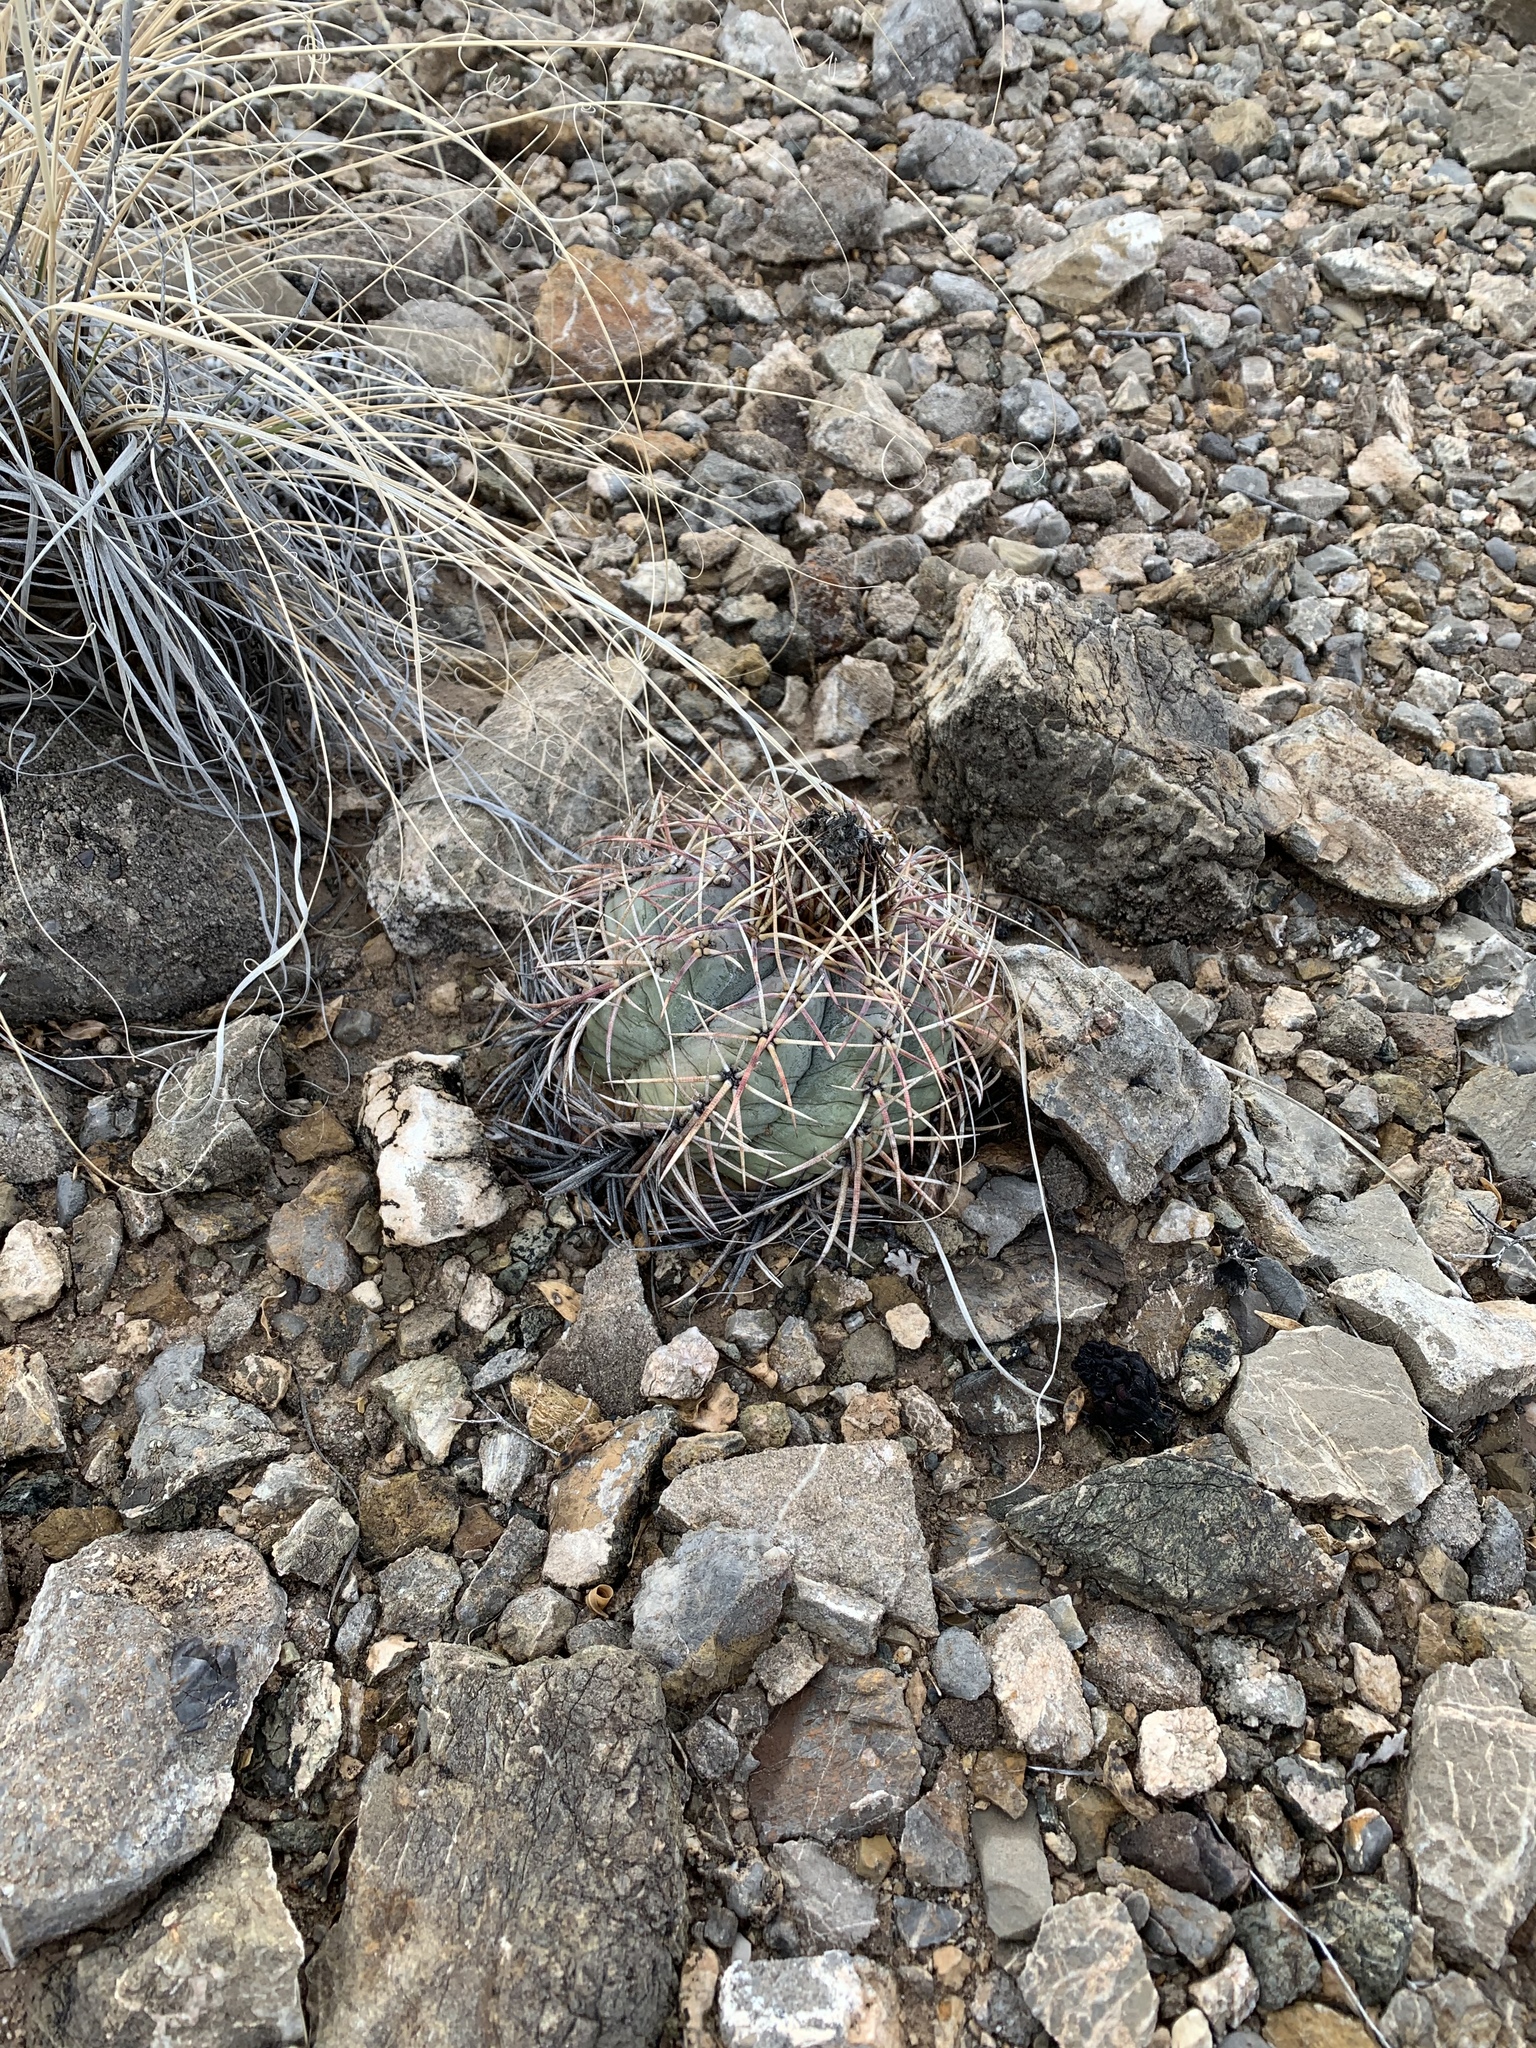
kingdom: Plantae
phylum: Tracheophyta
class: Magnoliopsida
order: Caryophyllales
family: Cactaceae
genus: Echinocactus
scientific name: Echinocactus horizonthalonius
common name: Devilshead
